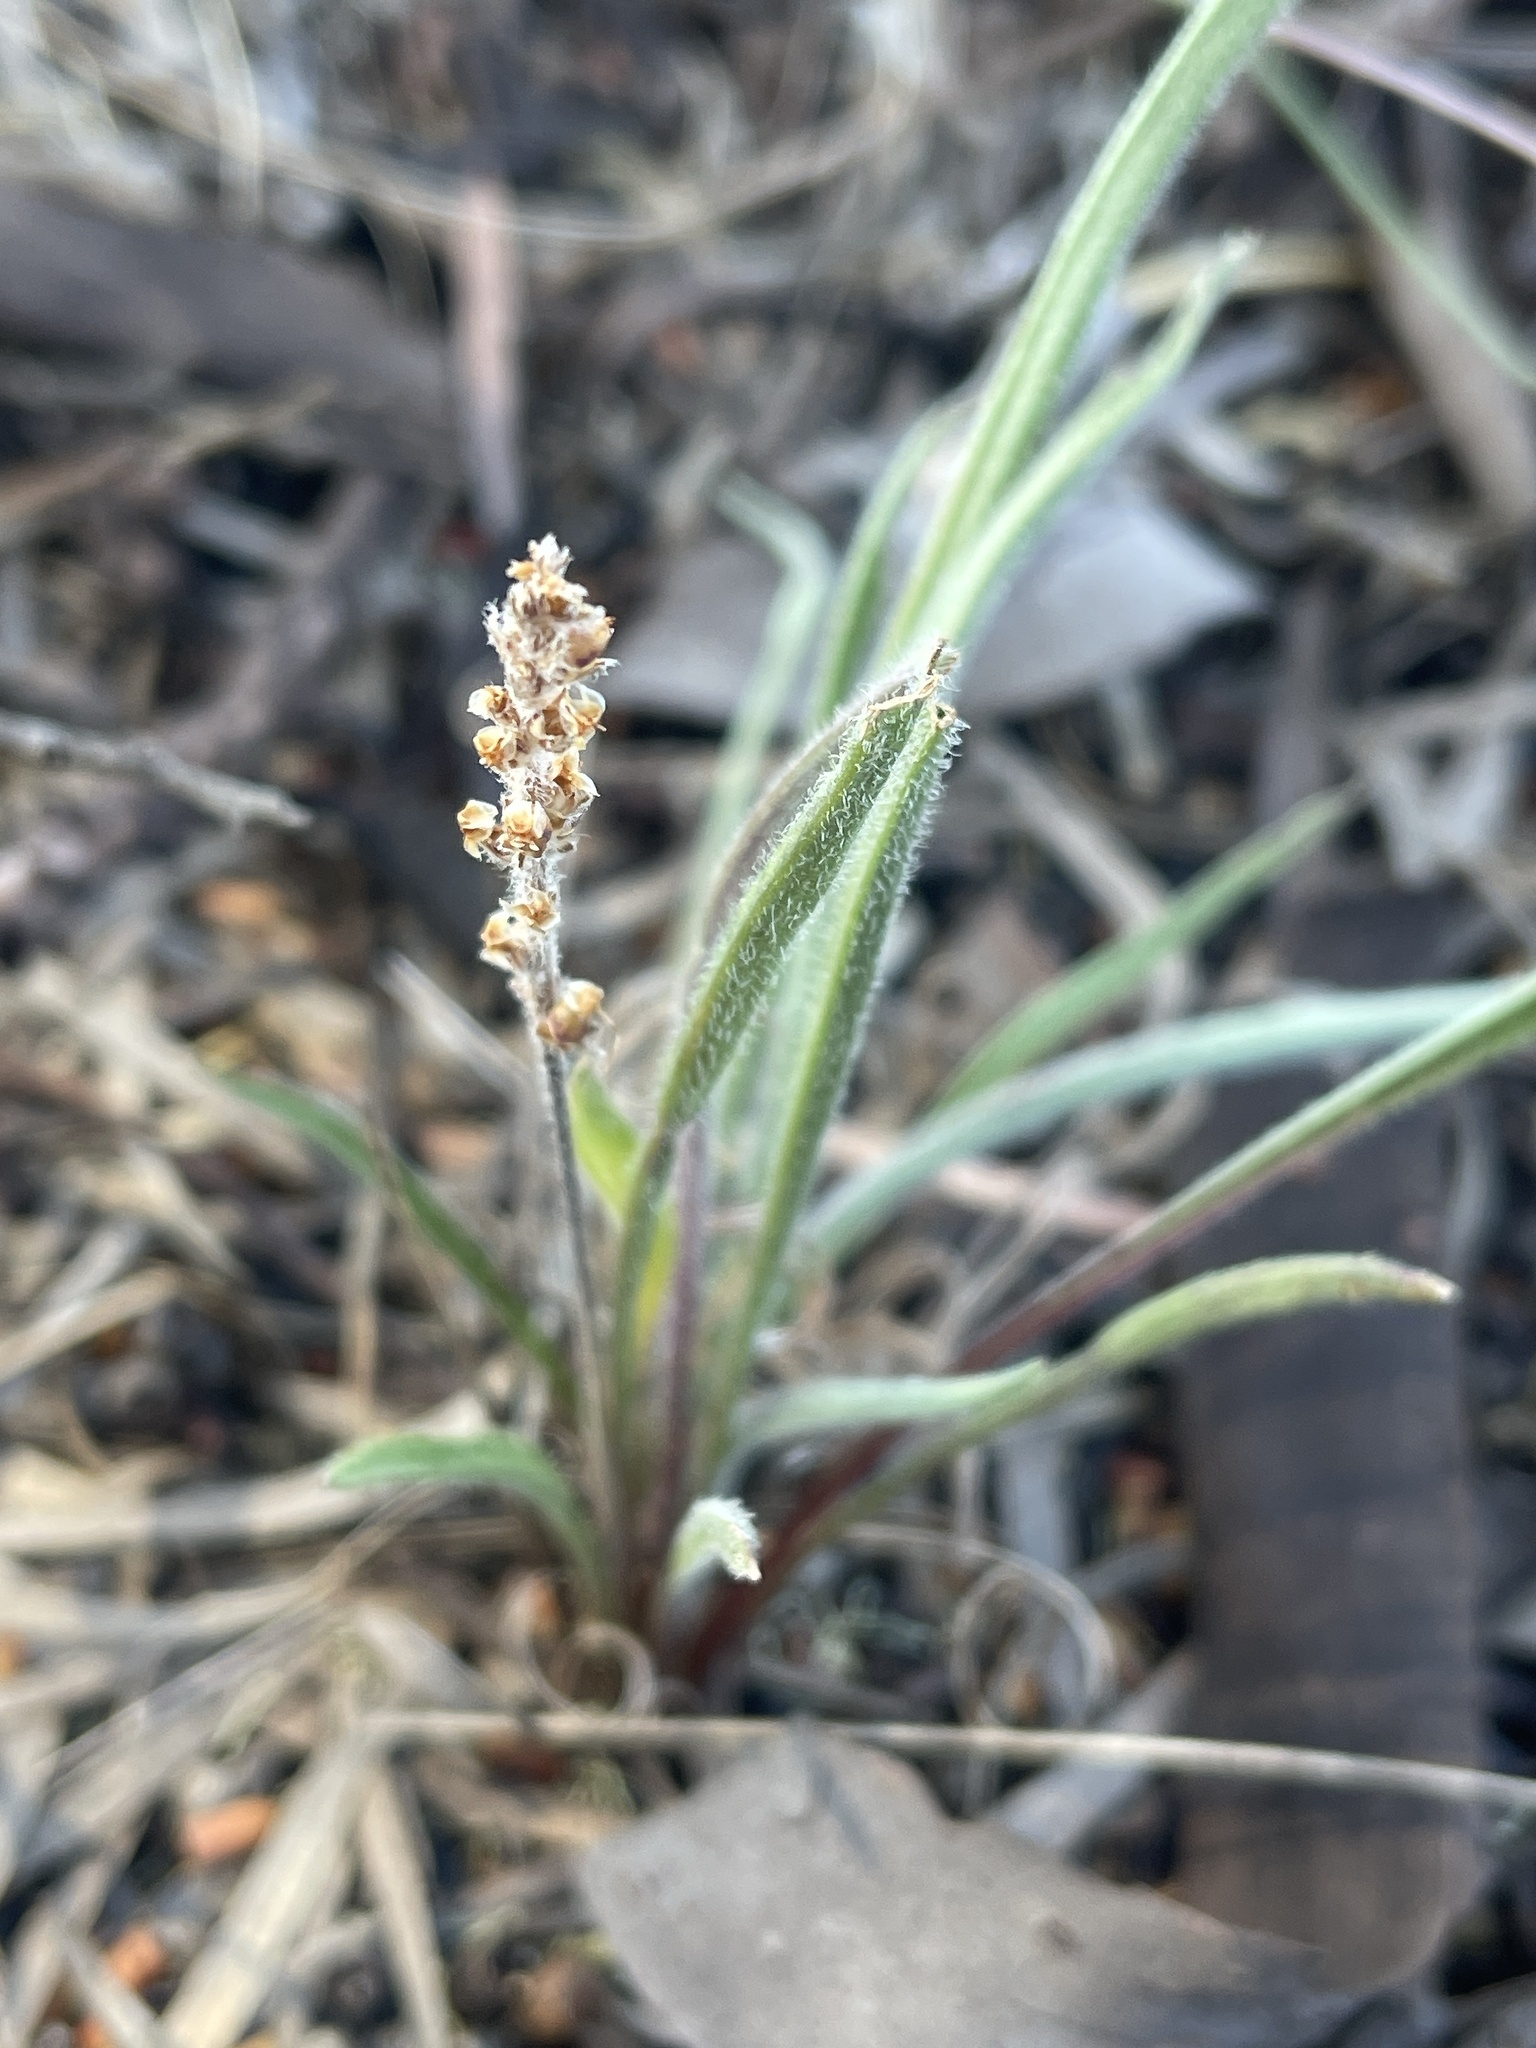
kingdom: Plantae
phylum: Tracheophyta
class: Magnoliopsida
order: Lamiales
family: Plantaginaceae
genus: Plantago
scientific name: Plantago gaudichaudii
